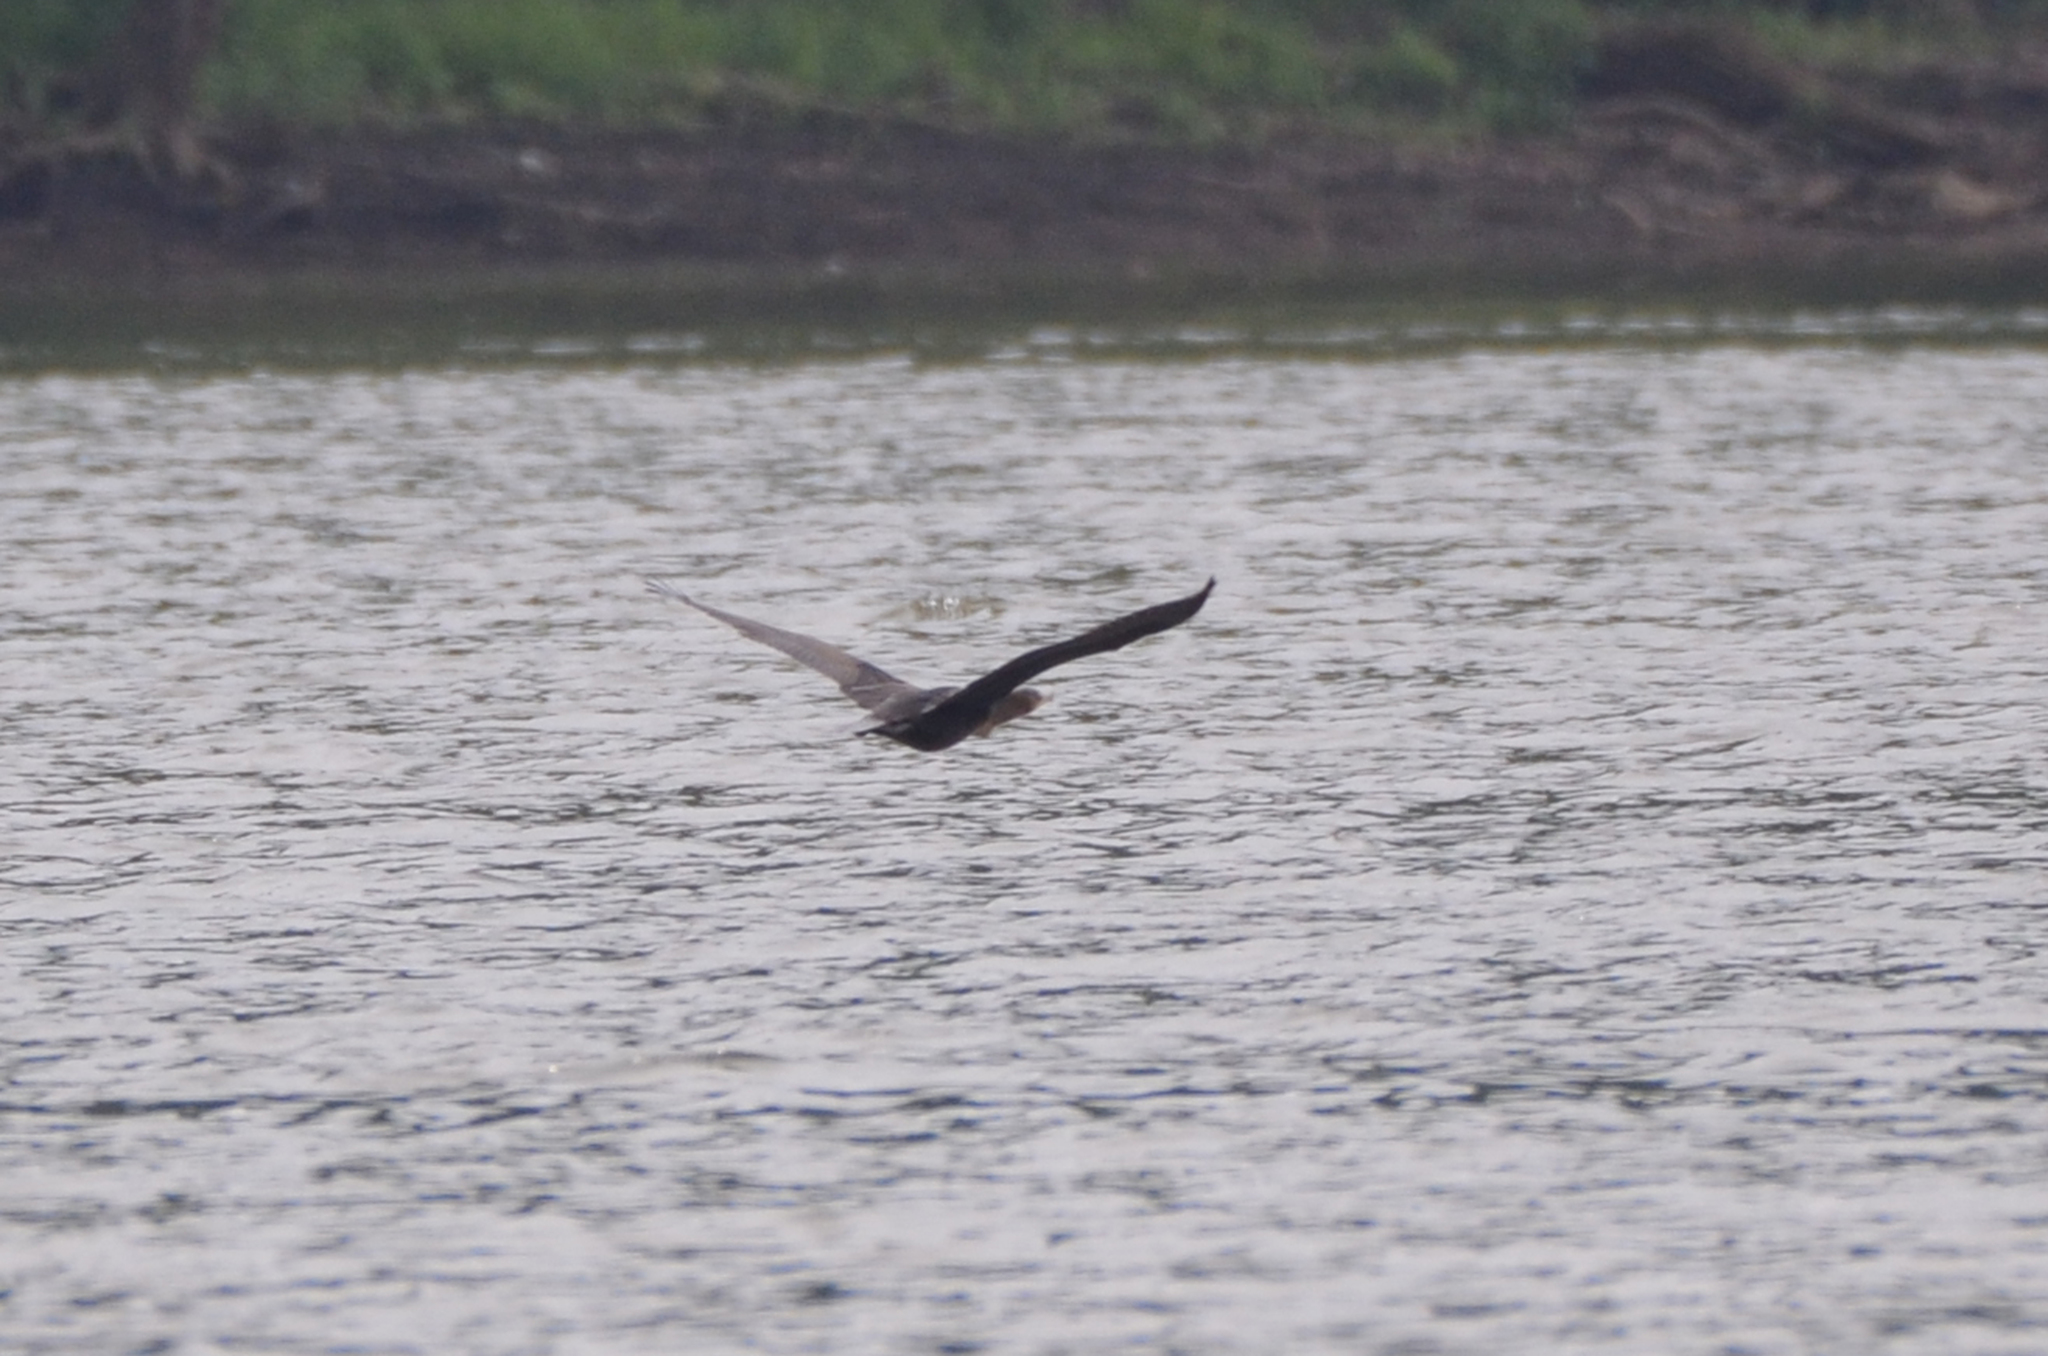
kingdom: Animalia
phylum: Chordata
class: Aves
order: Suliformes
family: Phalacrocoracidae
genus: Phalacrocorax
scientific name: Phalacrocorax auritus
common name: Double-crested cormorant
